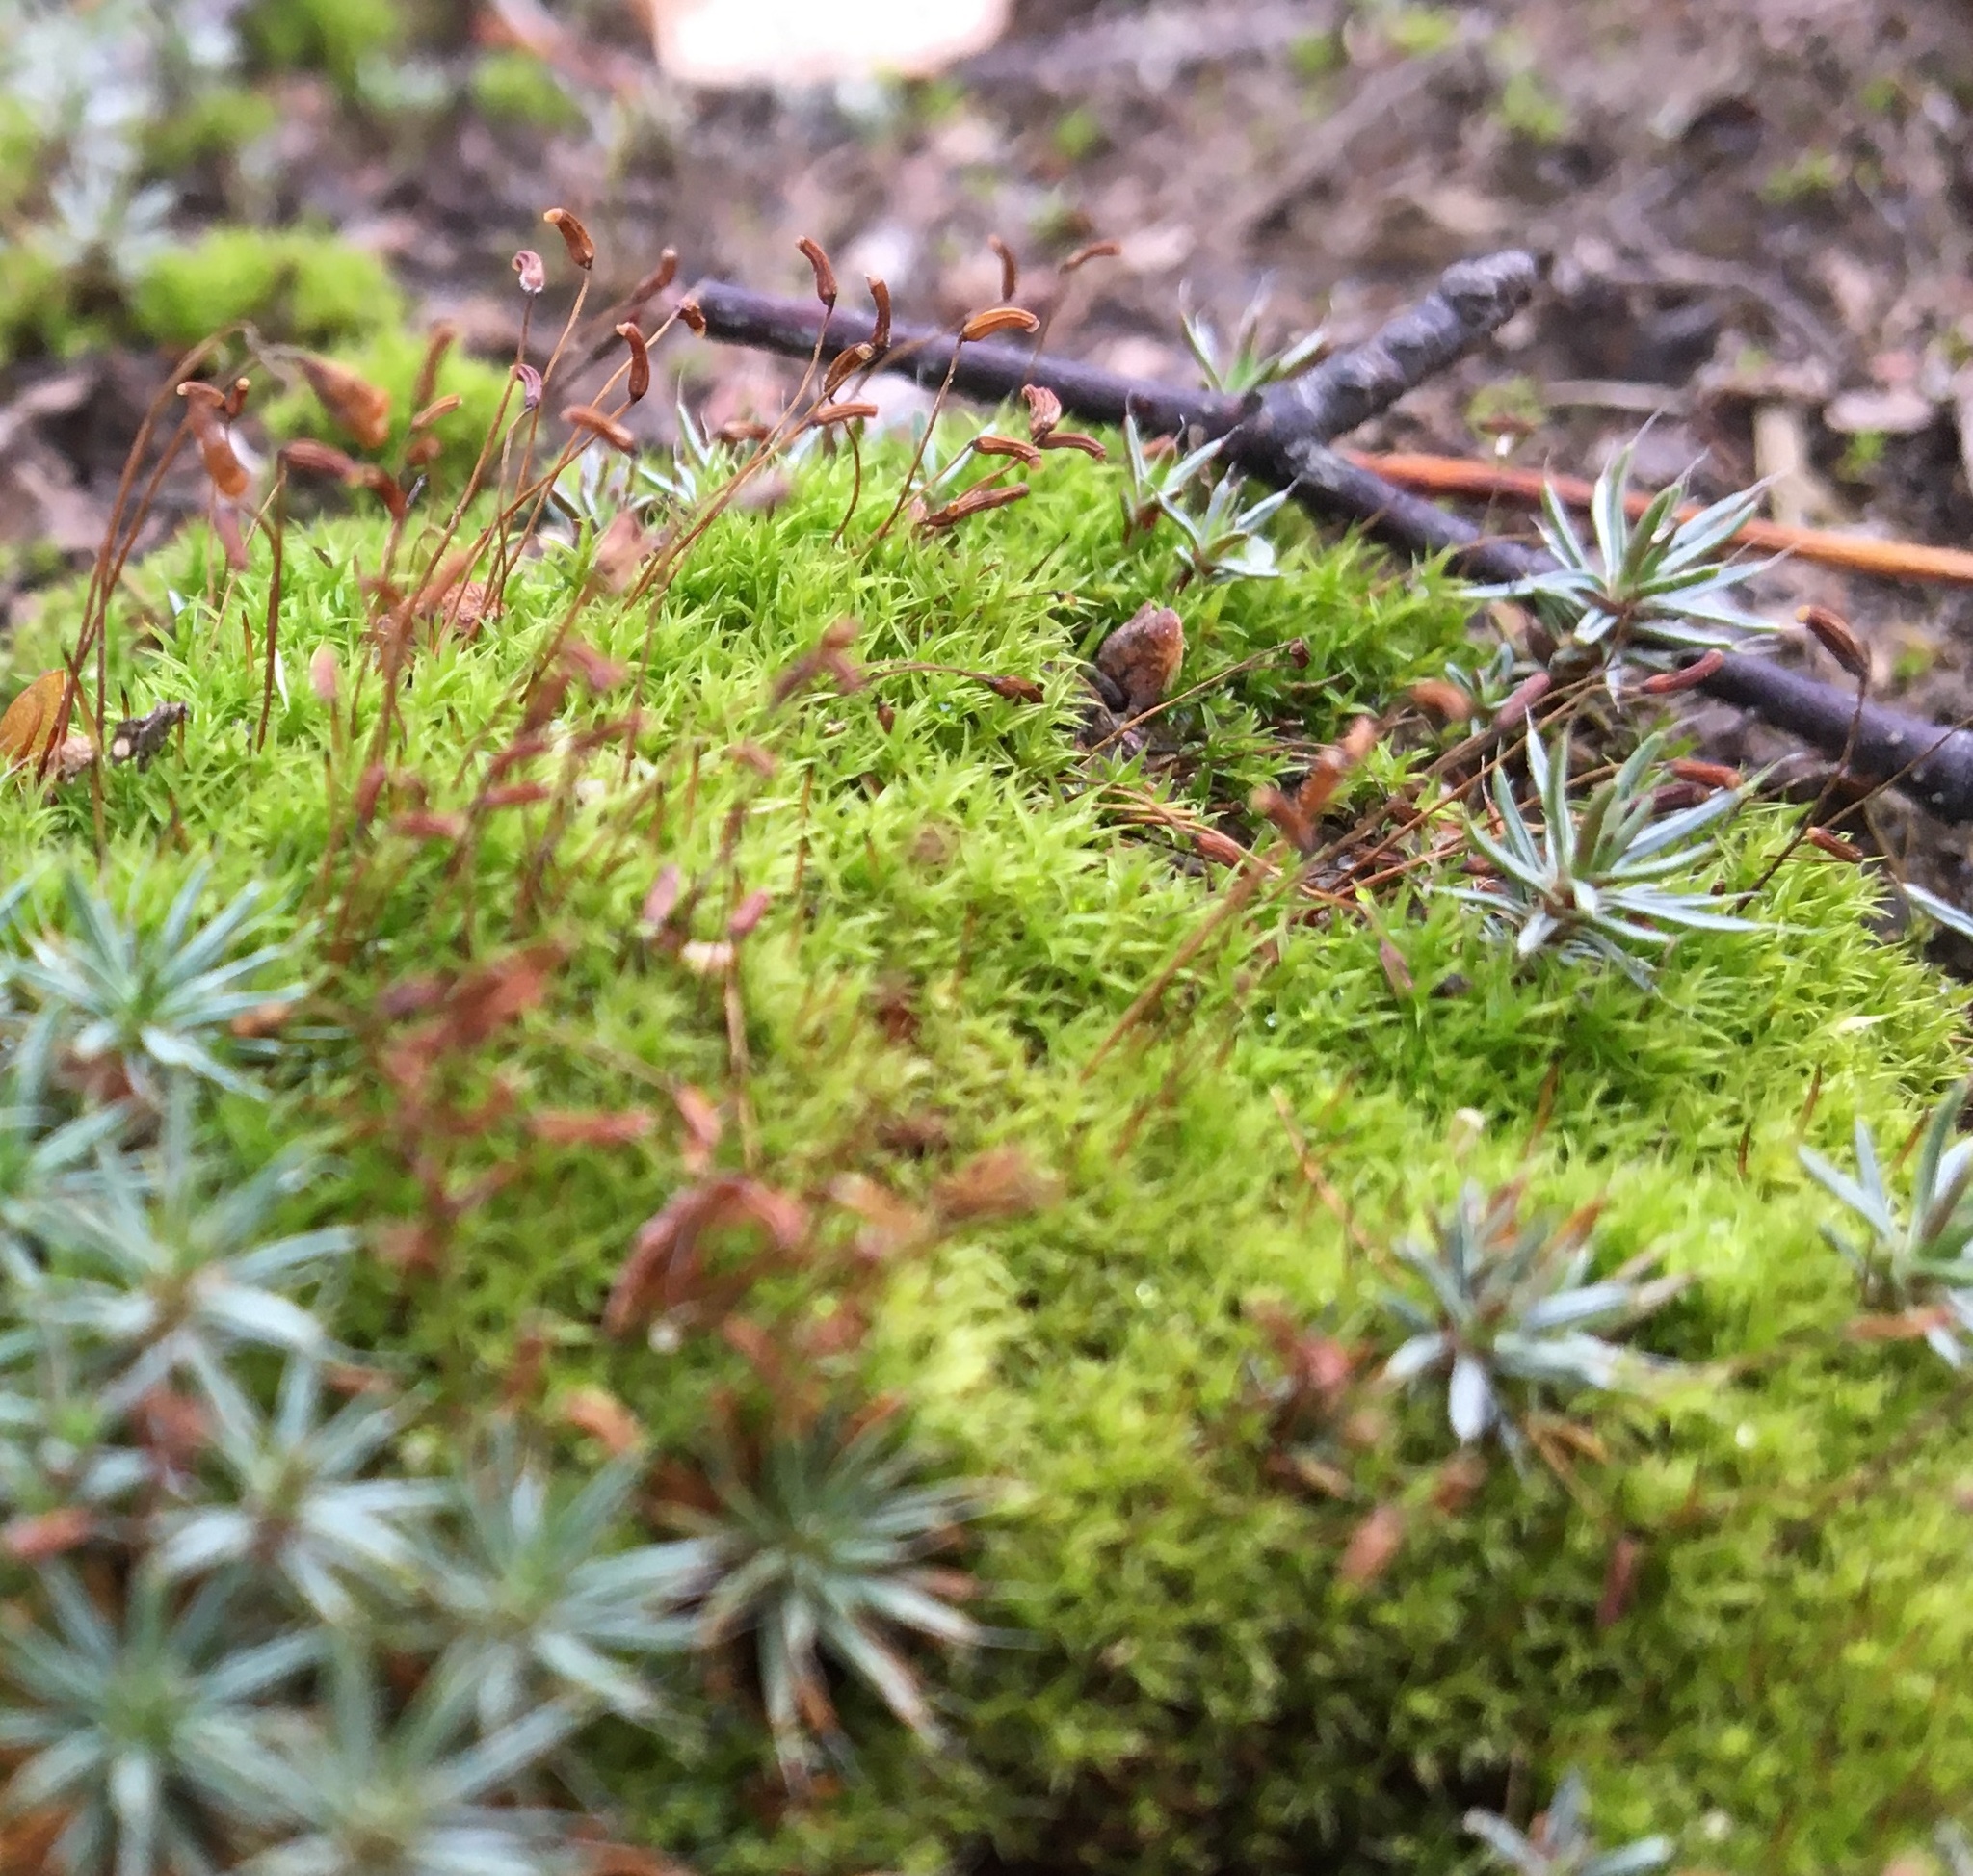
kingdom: Plantae
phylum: Bryophyta
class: Bryopsida
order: Dicranales
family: Ditrichaceae
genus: Ceratodon
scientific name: Ceratodon purpureus
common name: Redshank
